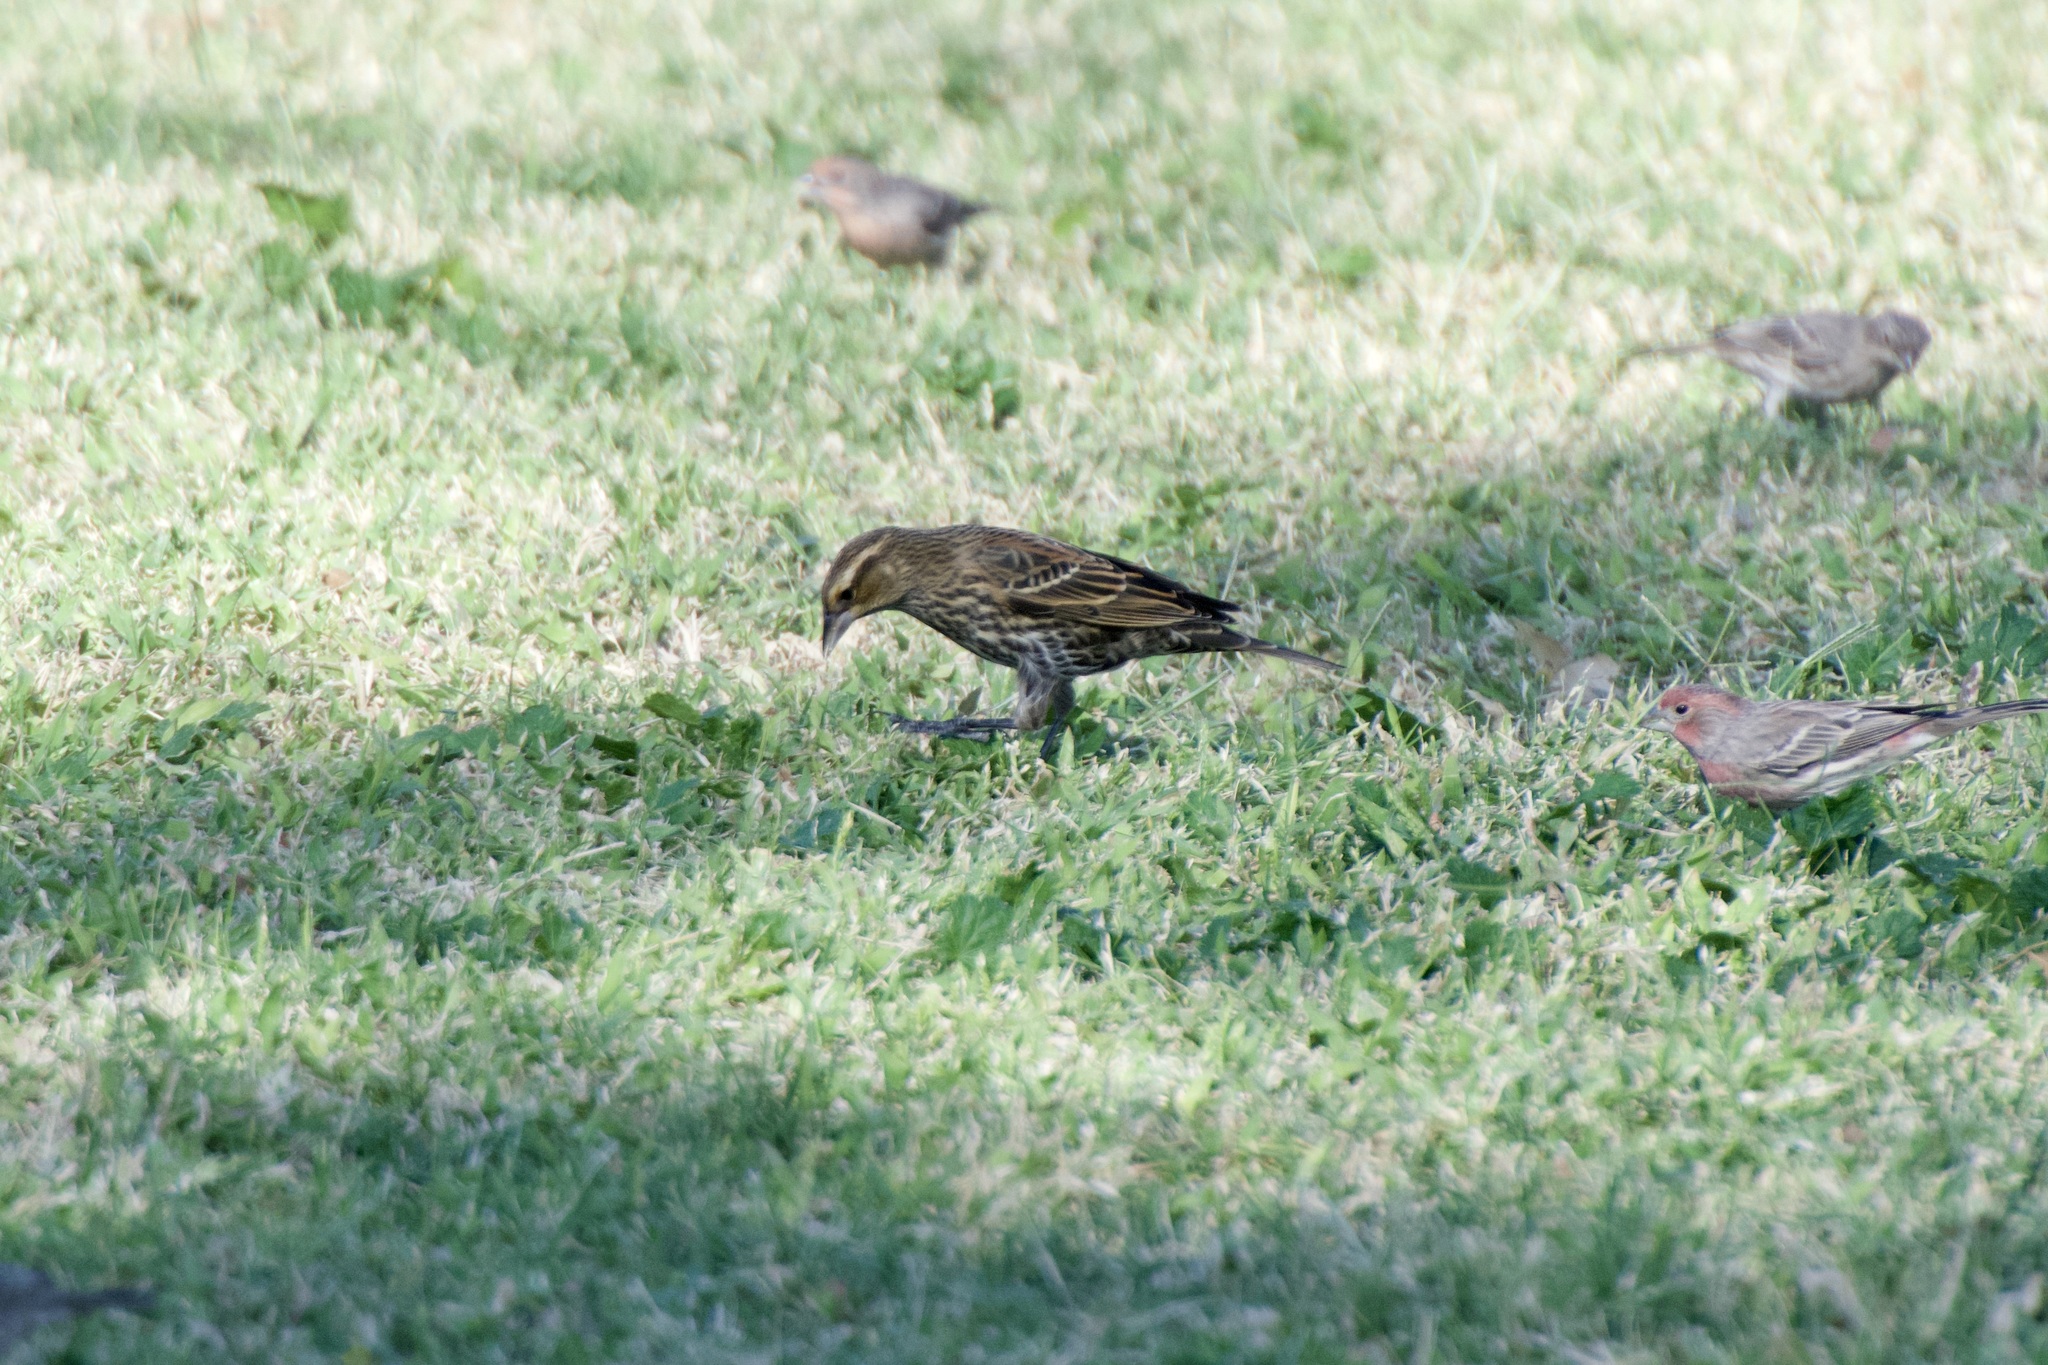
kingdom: Animalia
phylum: Chordata
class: Aves
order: Passeriformes
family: Icteridae
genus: Agelaius
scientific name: Agelaius phoeniceus
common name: Red-winged blackbird
